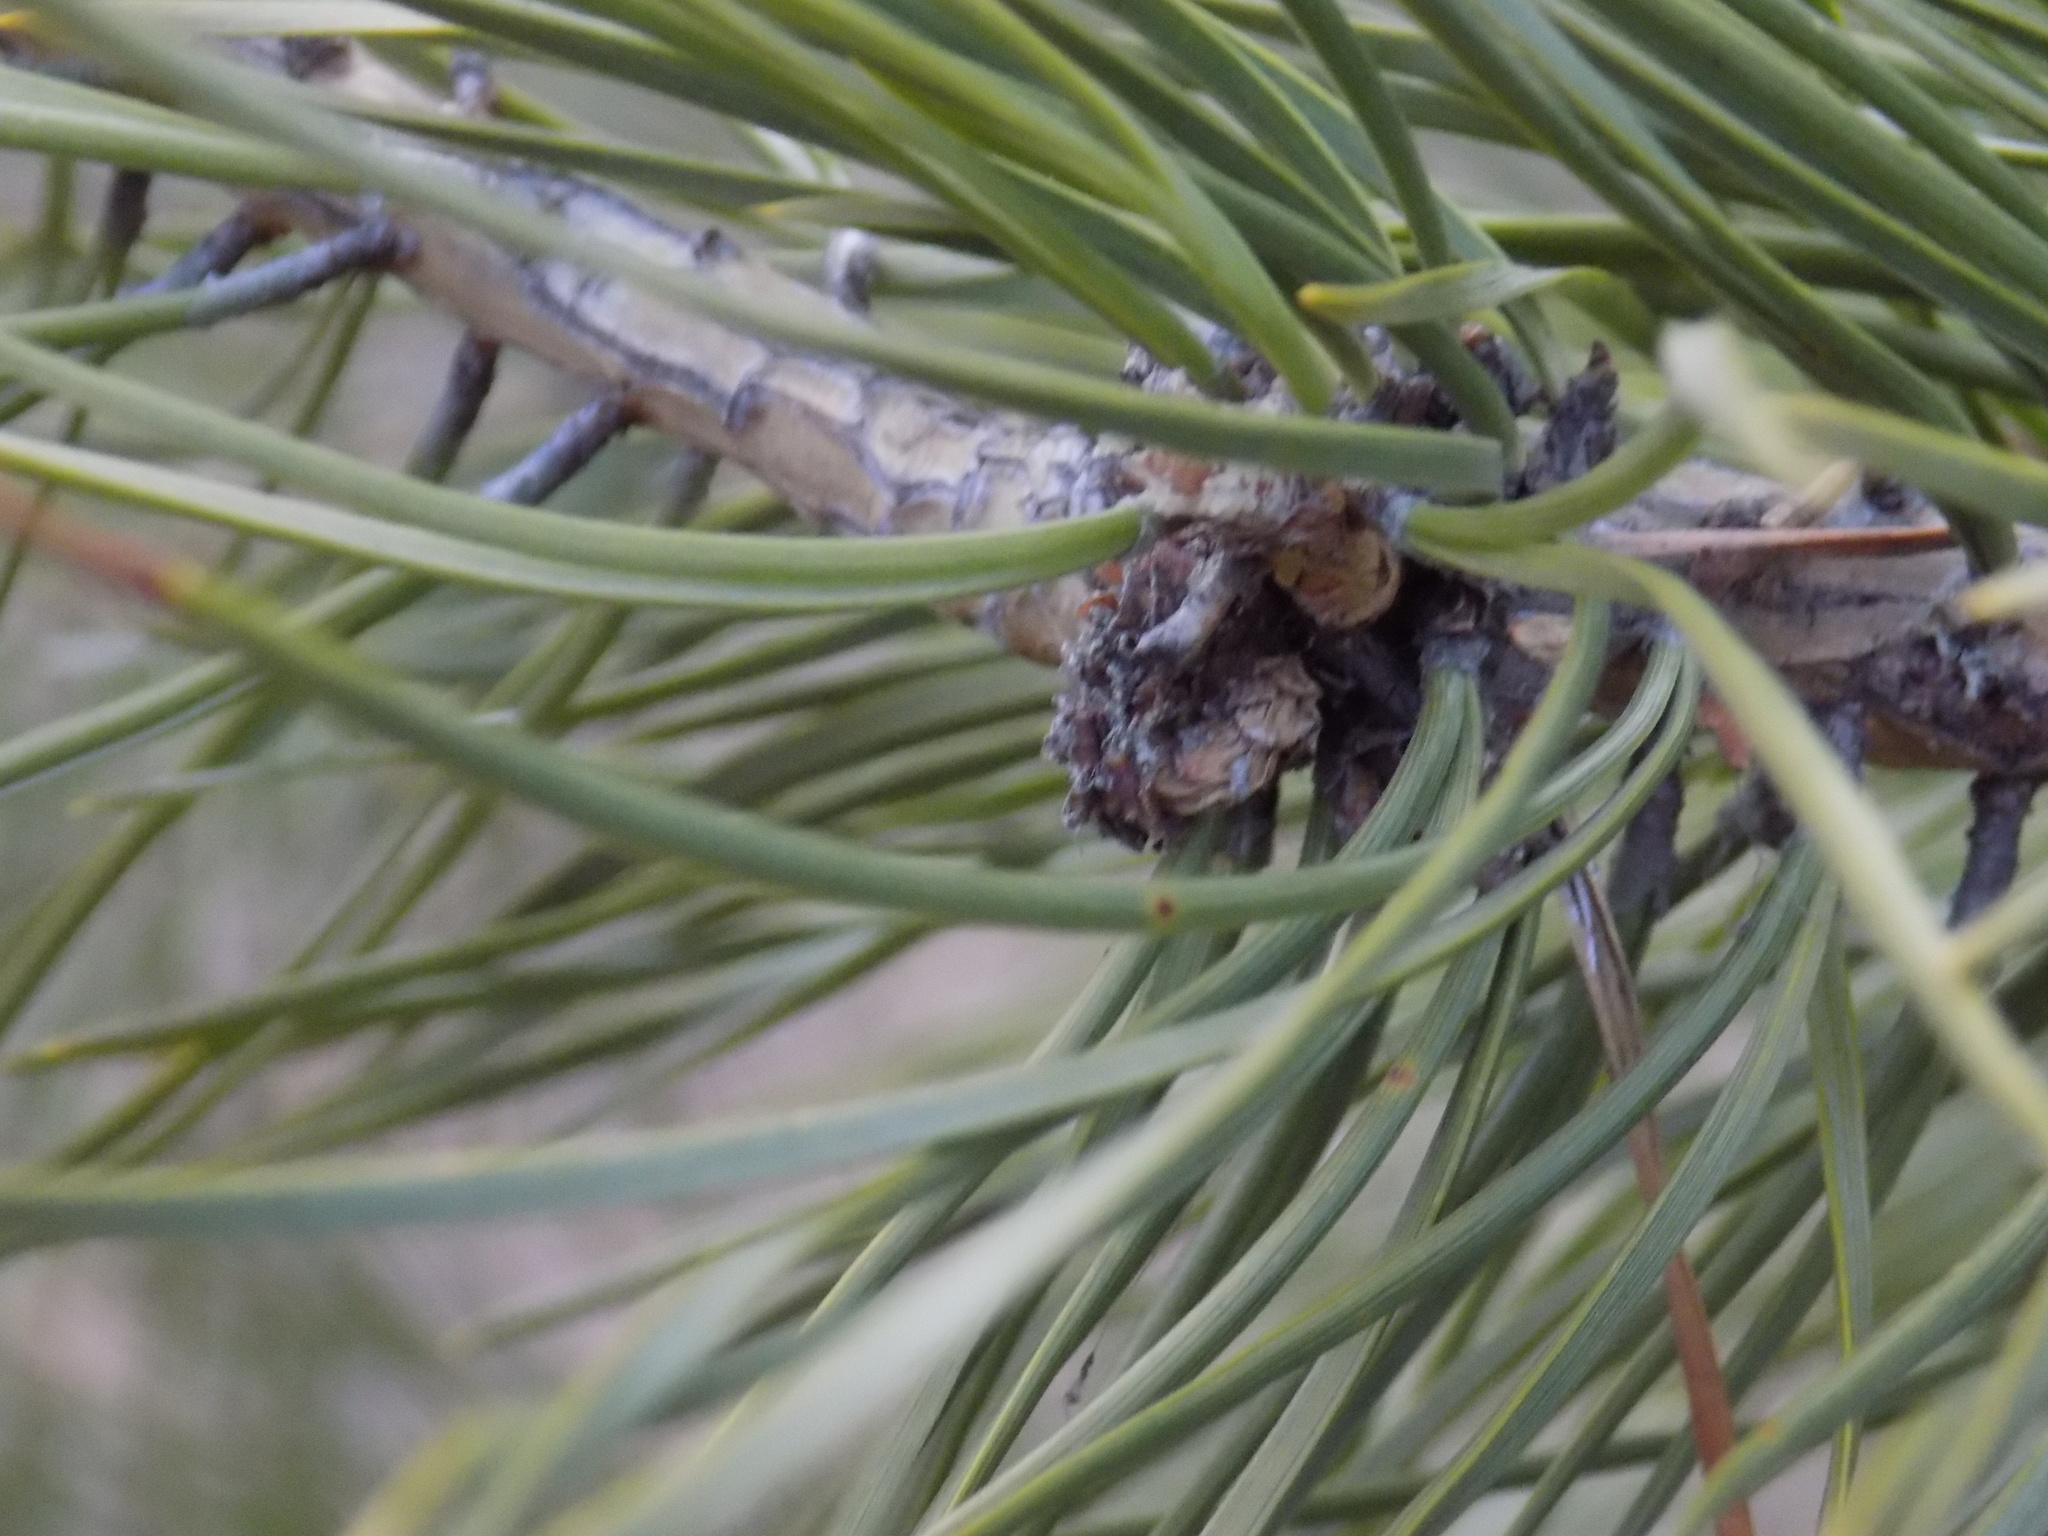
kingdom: Plantae
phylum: Tracheophyta
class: Pinopsida
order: Pinales
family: Pinaceae
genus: Pinus
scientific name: Pinus sylvestris
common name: Scots pine
